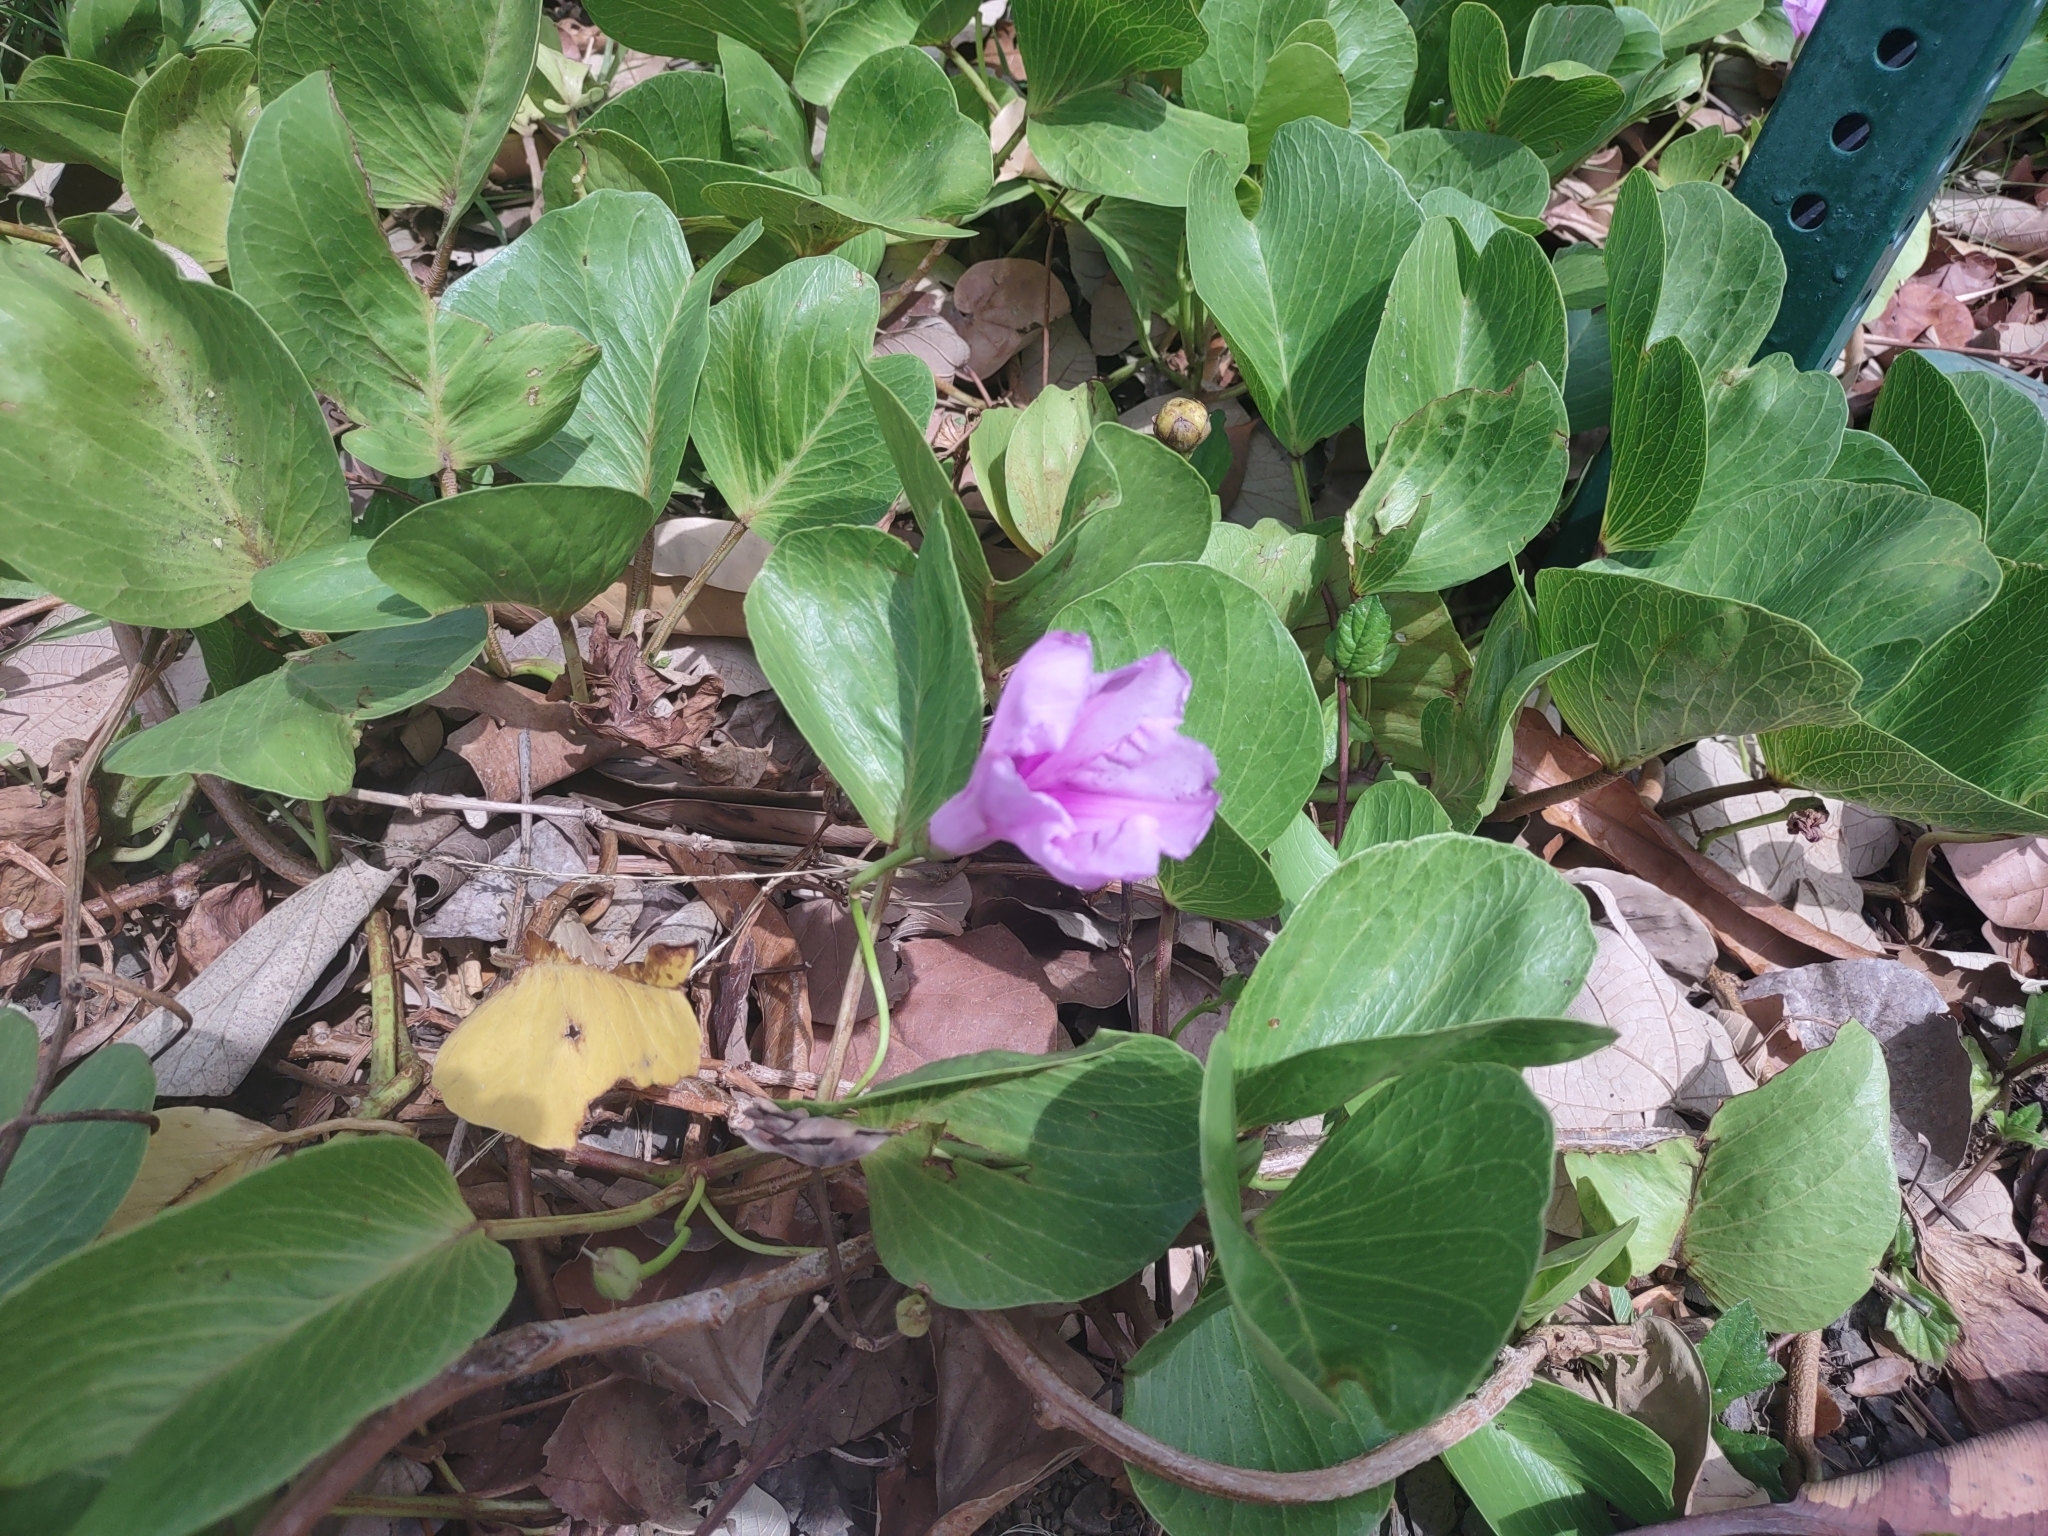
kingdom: Plantae
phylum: Tracheophyta
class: Magnoliopsida
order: Solanales
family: Convolvulaceae
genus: Ipomoea
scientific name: Ipomoea pes-caprae
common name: Beach morning glory
